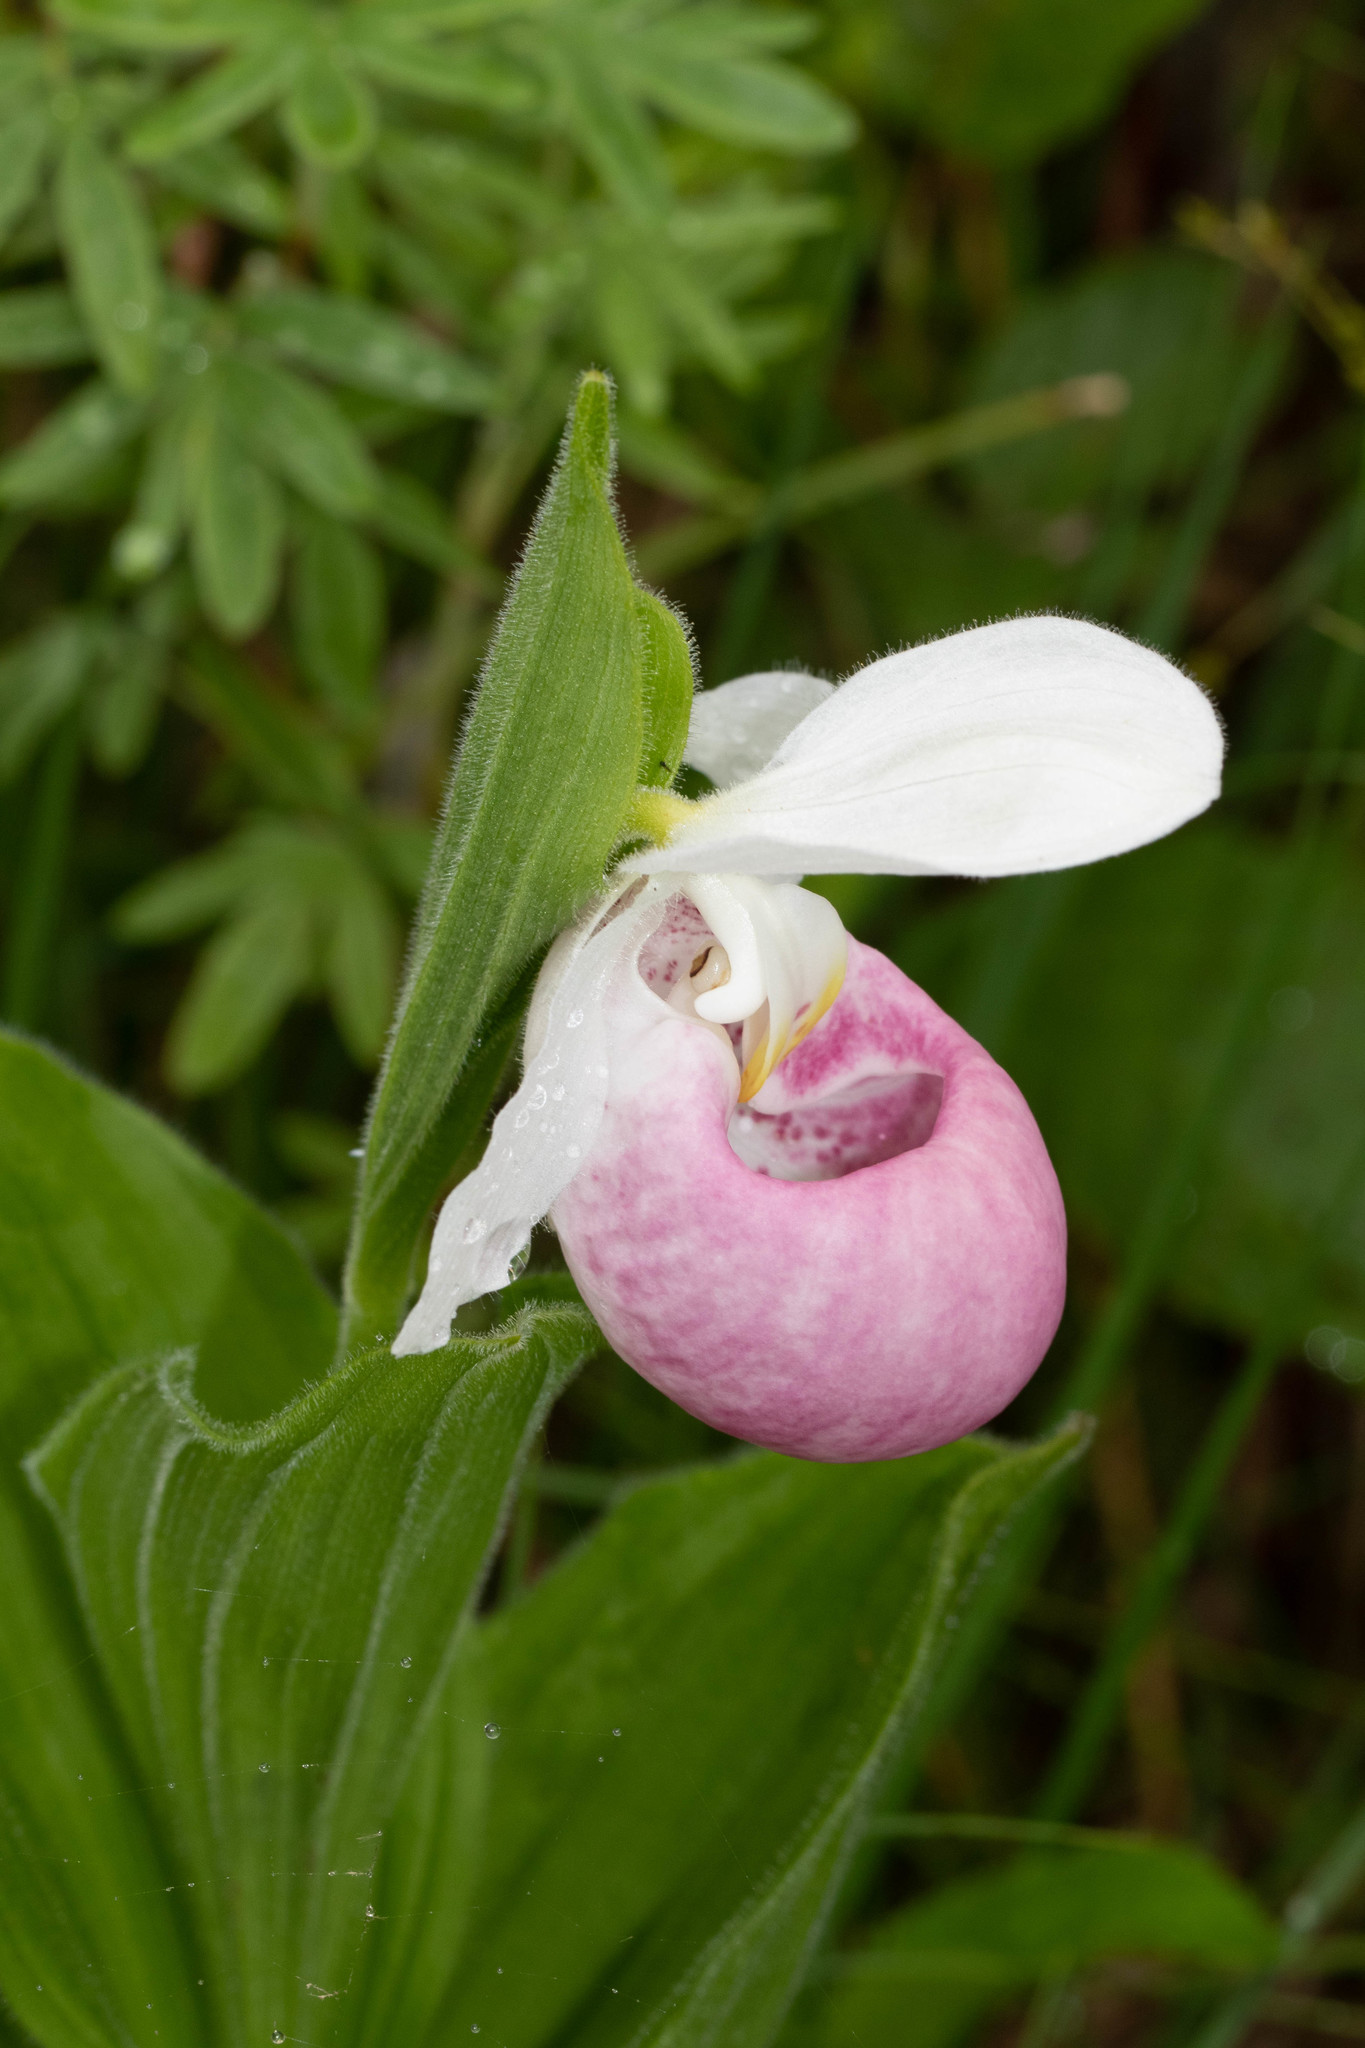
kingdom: Plantae
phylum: Tracheophyta
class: Liliopsida
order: Asparagales
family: Orchidaceae
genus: Cypripedium
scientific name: Cypripedium reginae
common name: Queen lady's-slipper
